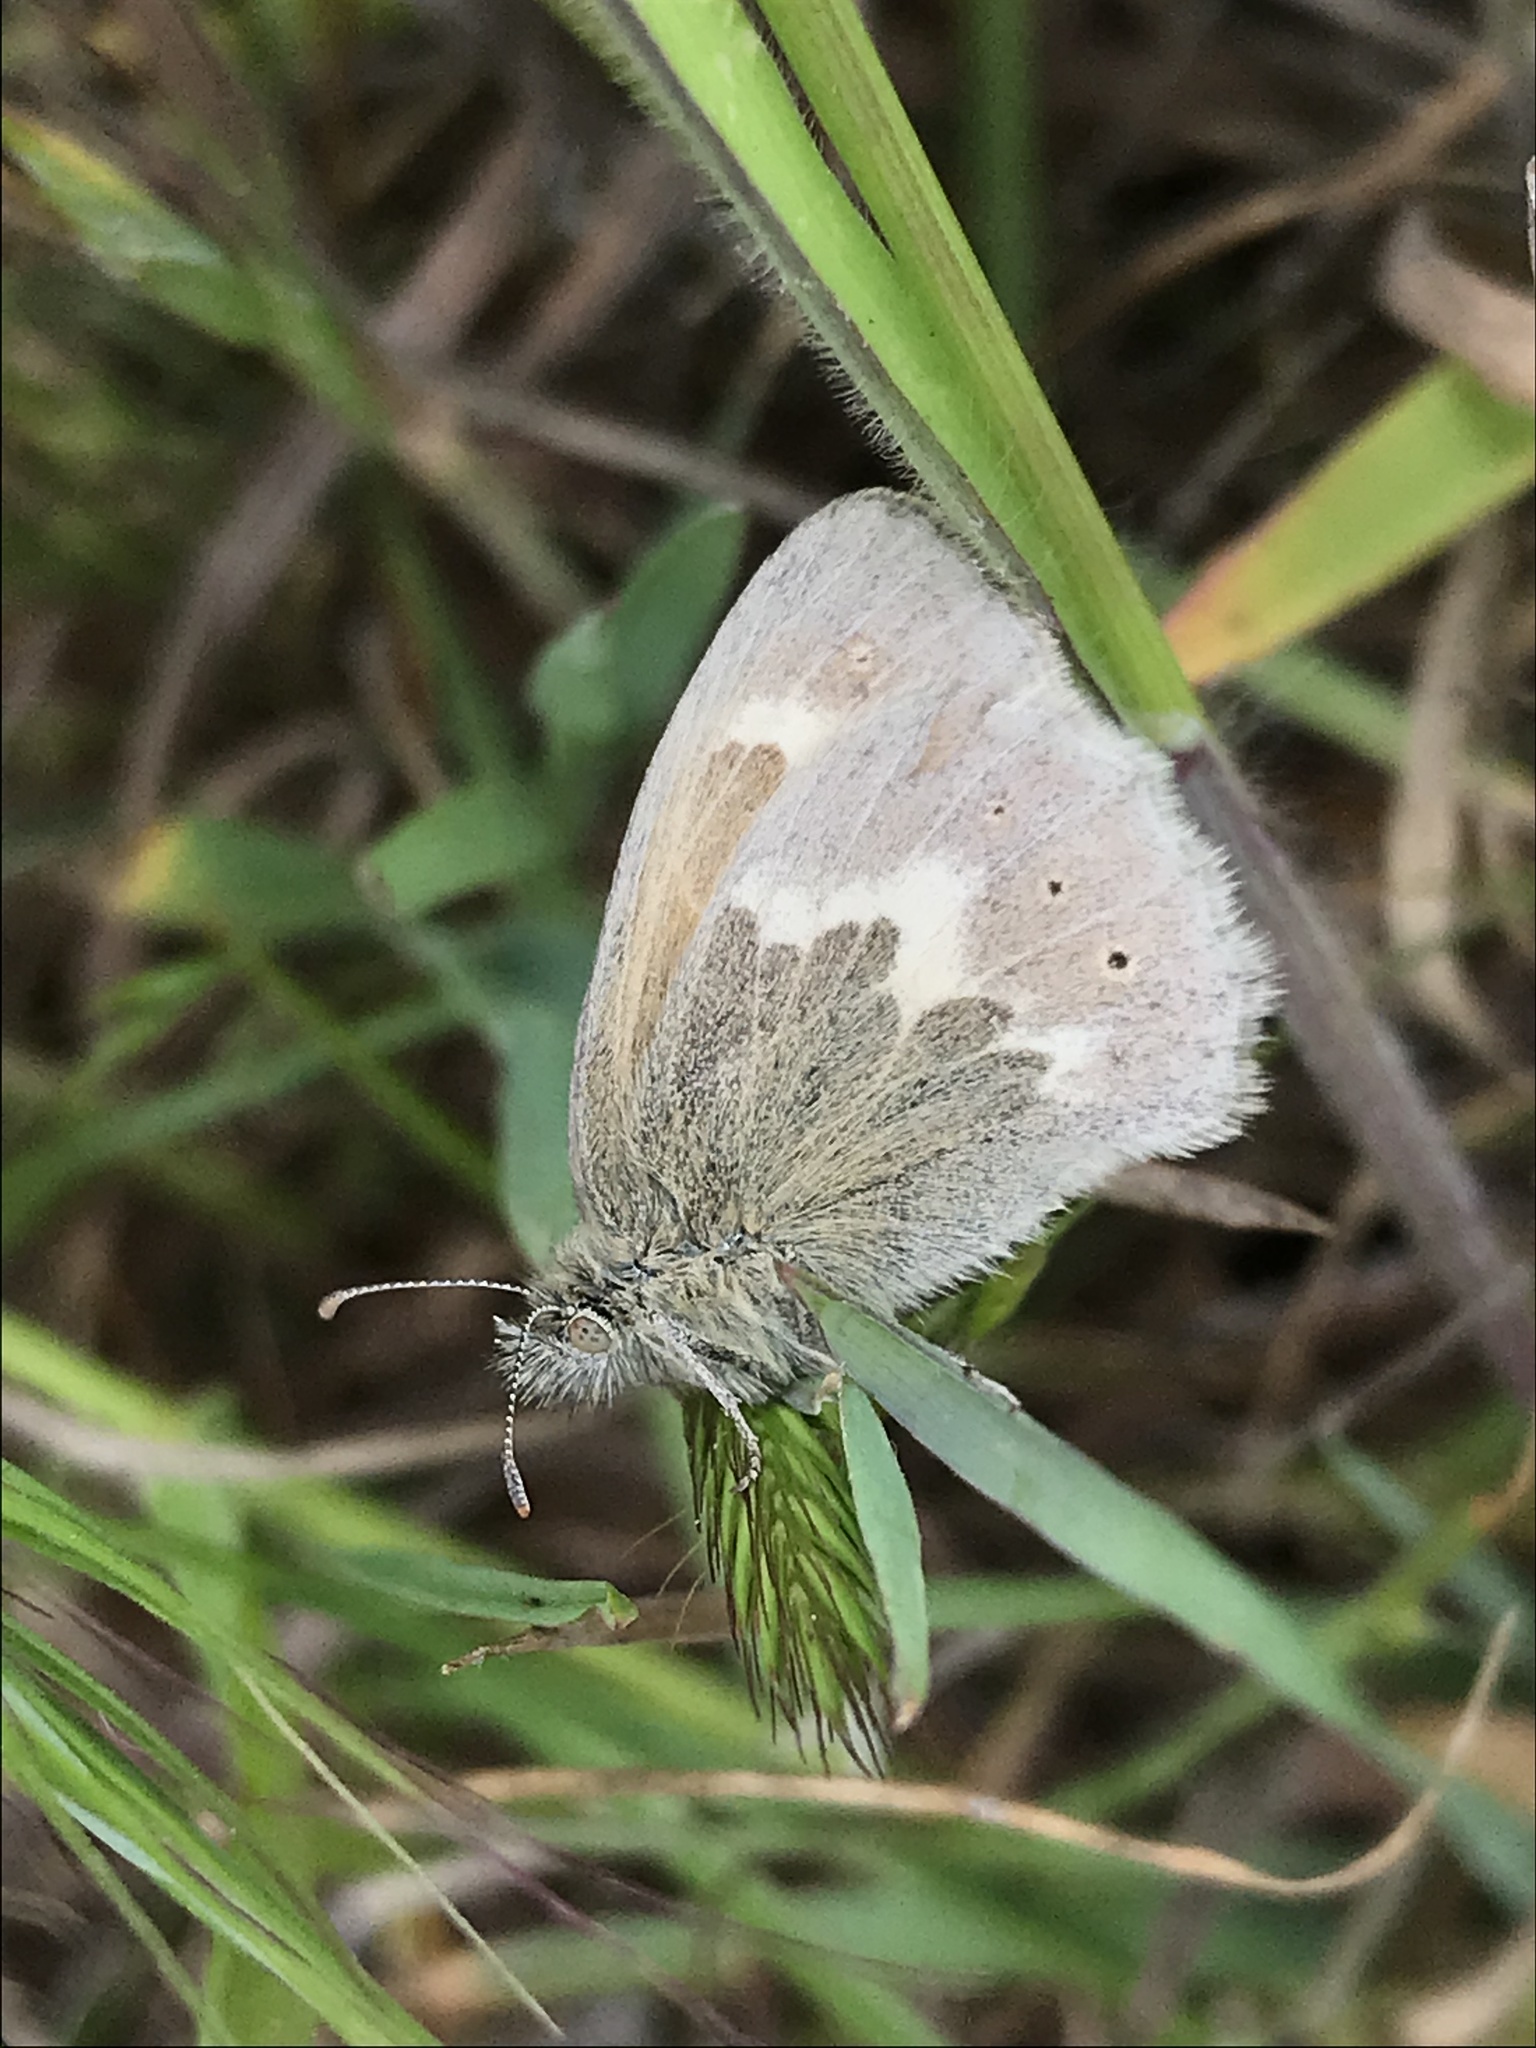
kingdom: Animalia
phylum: Arthropoda
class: Insecta
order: Lepidoptera
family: Nymphalidae
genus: Coenonympha
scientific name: Coenonympha california
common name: Common ringlet
